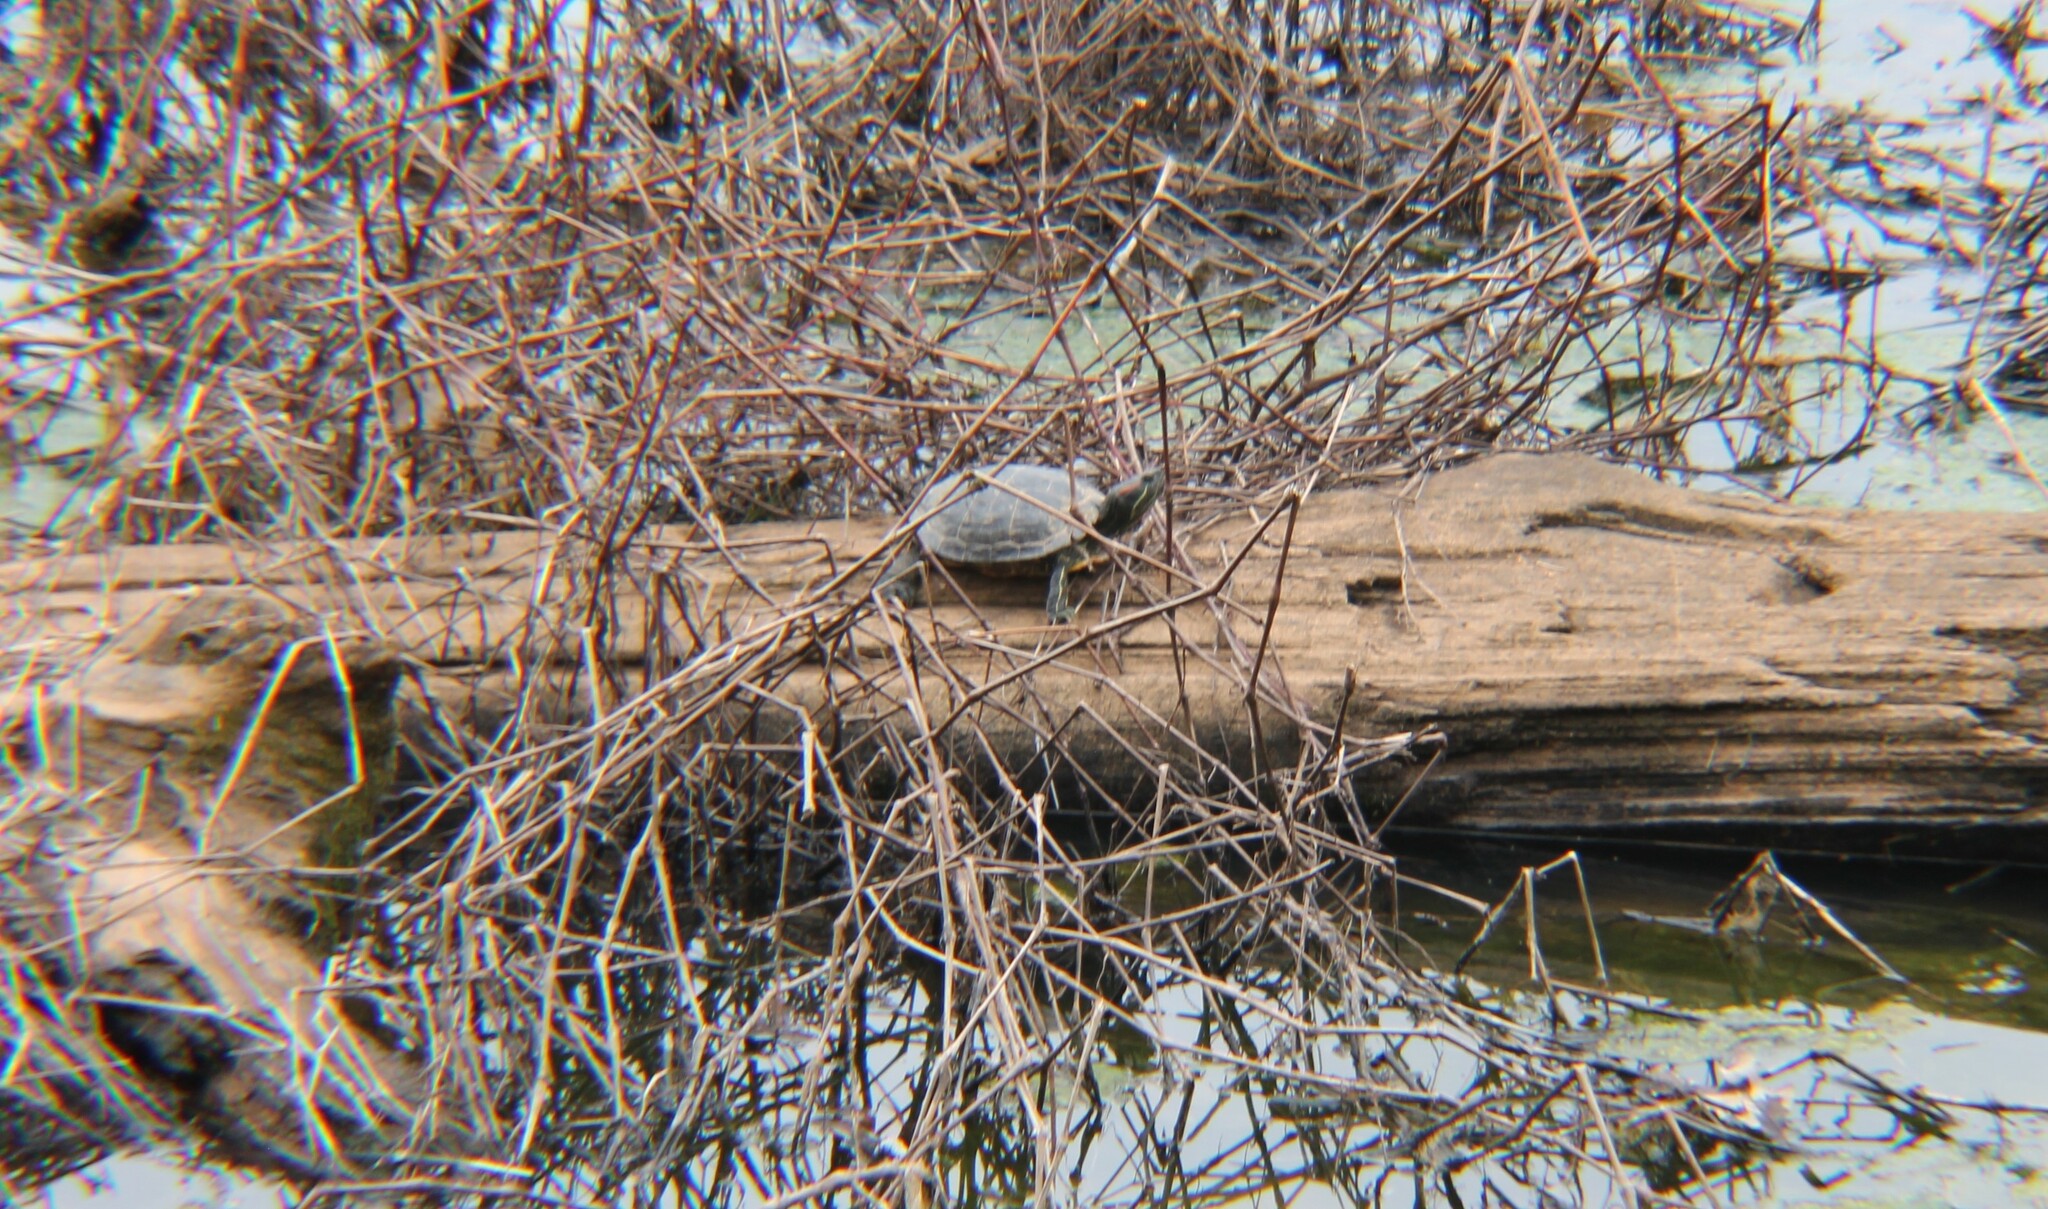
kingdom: Animalia
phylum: Chordata
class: Testudines
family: Emydidae
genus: Trachemys
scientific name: Trachemys scripta
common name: Slider
